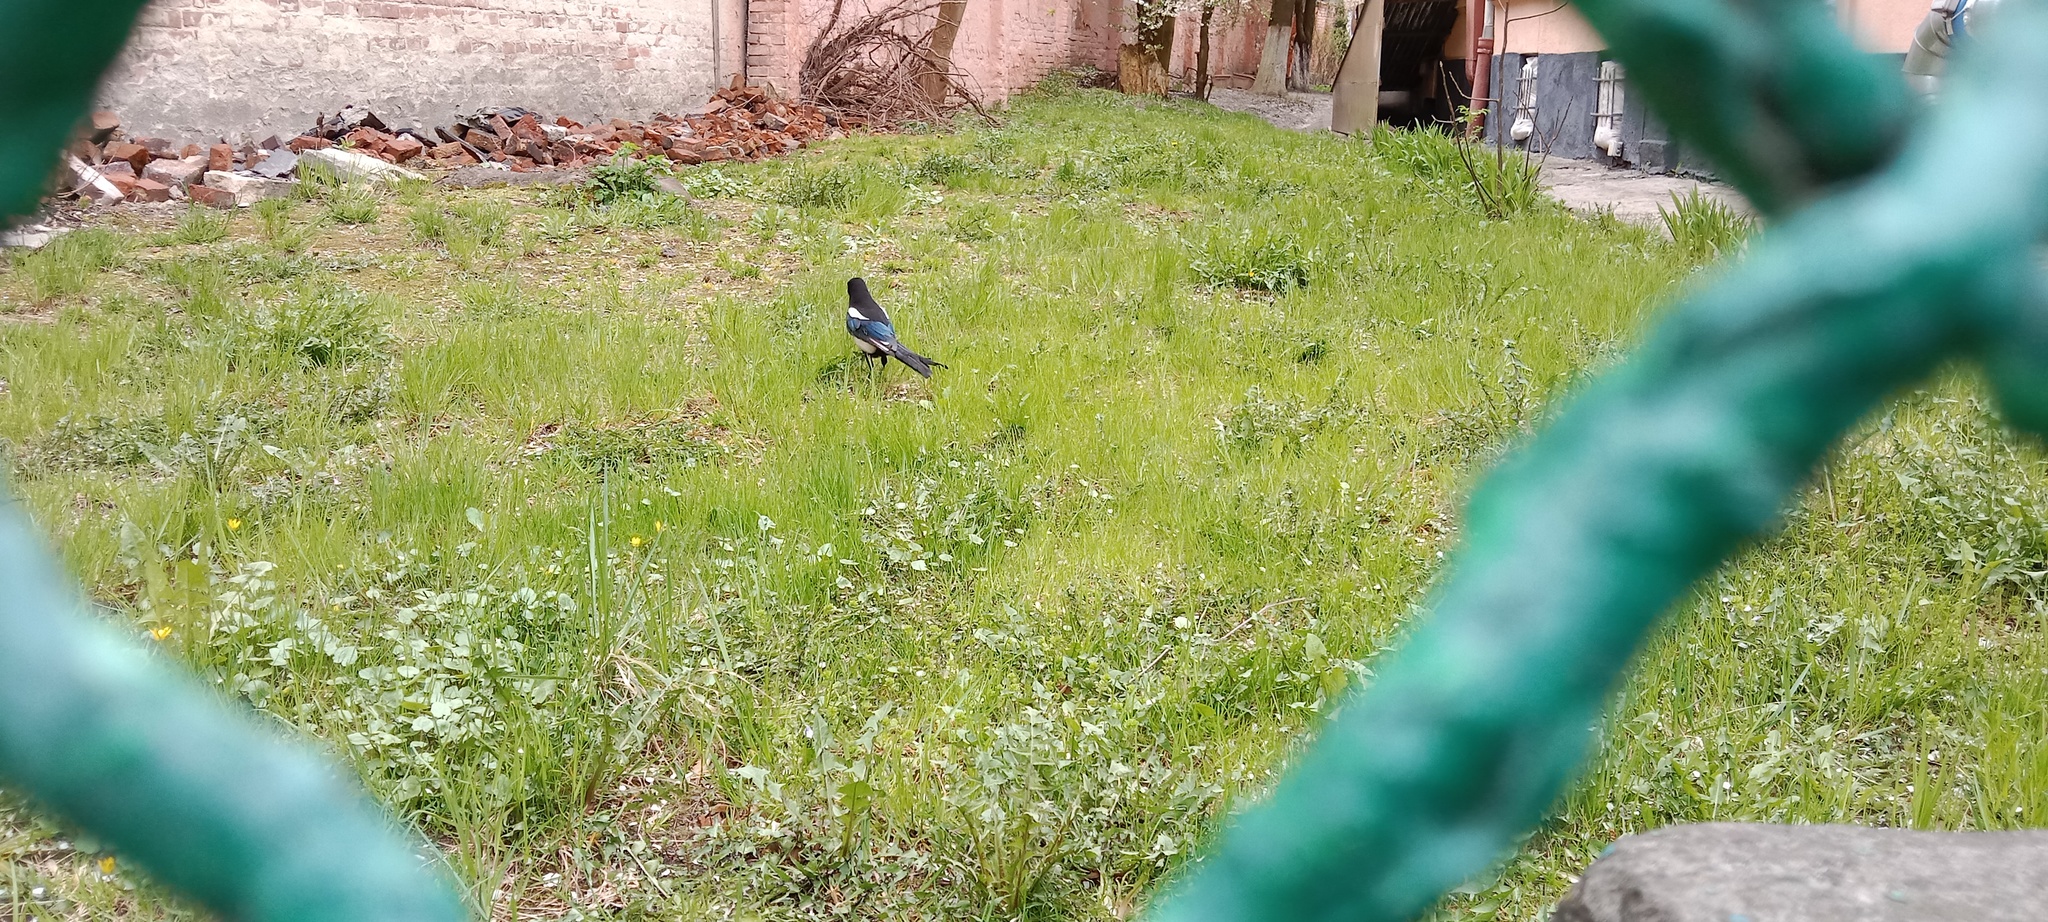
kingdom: Animalia
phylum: Chordata
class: Aves
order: Passeriformes
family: Corvidae
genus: Pica
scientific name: Pica pica
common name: Eurasian magpie
